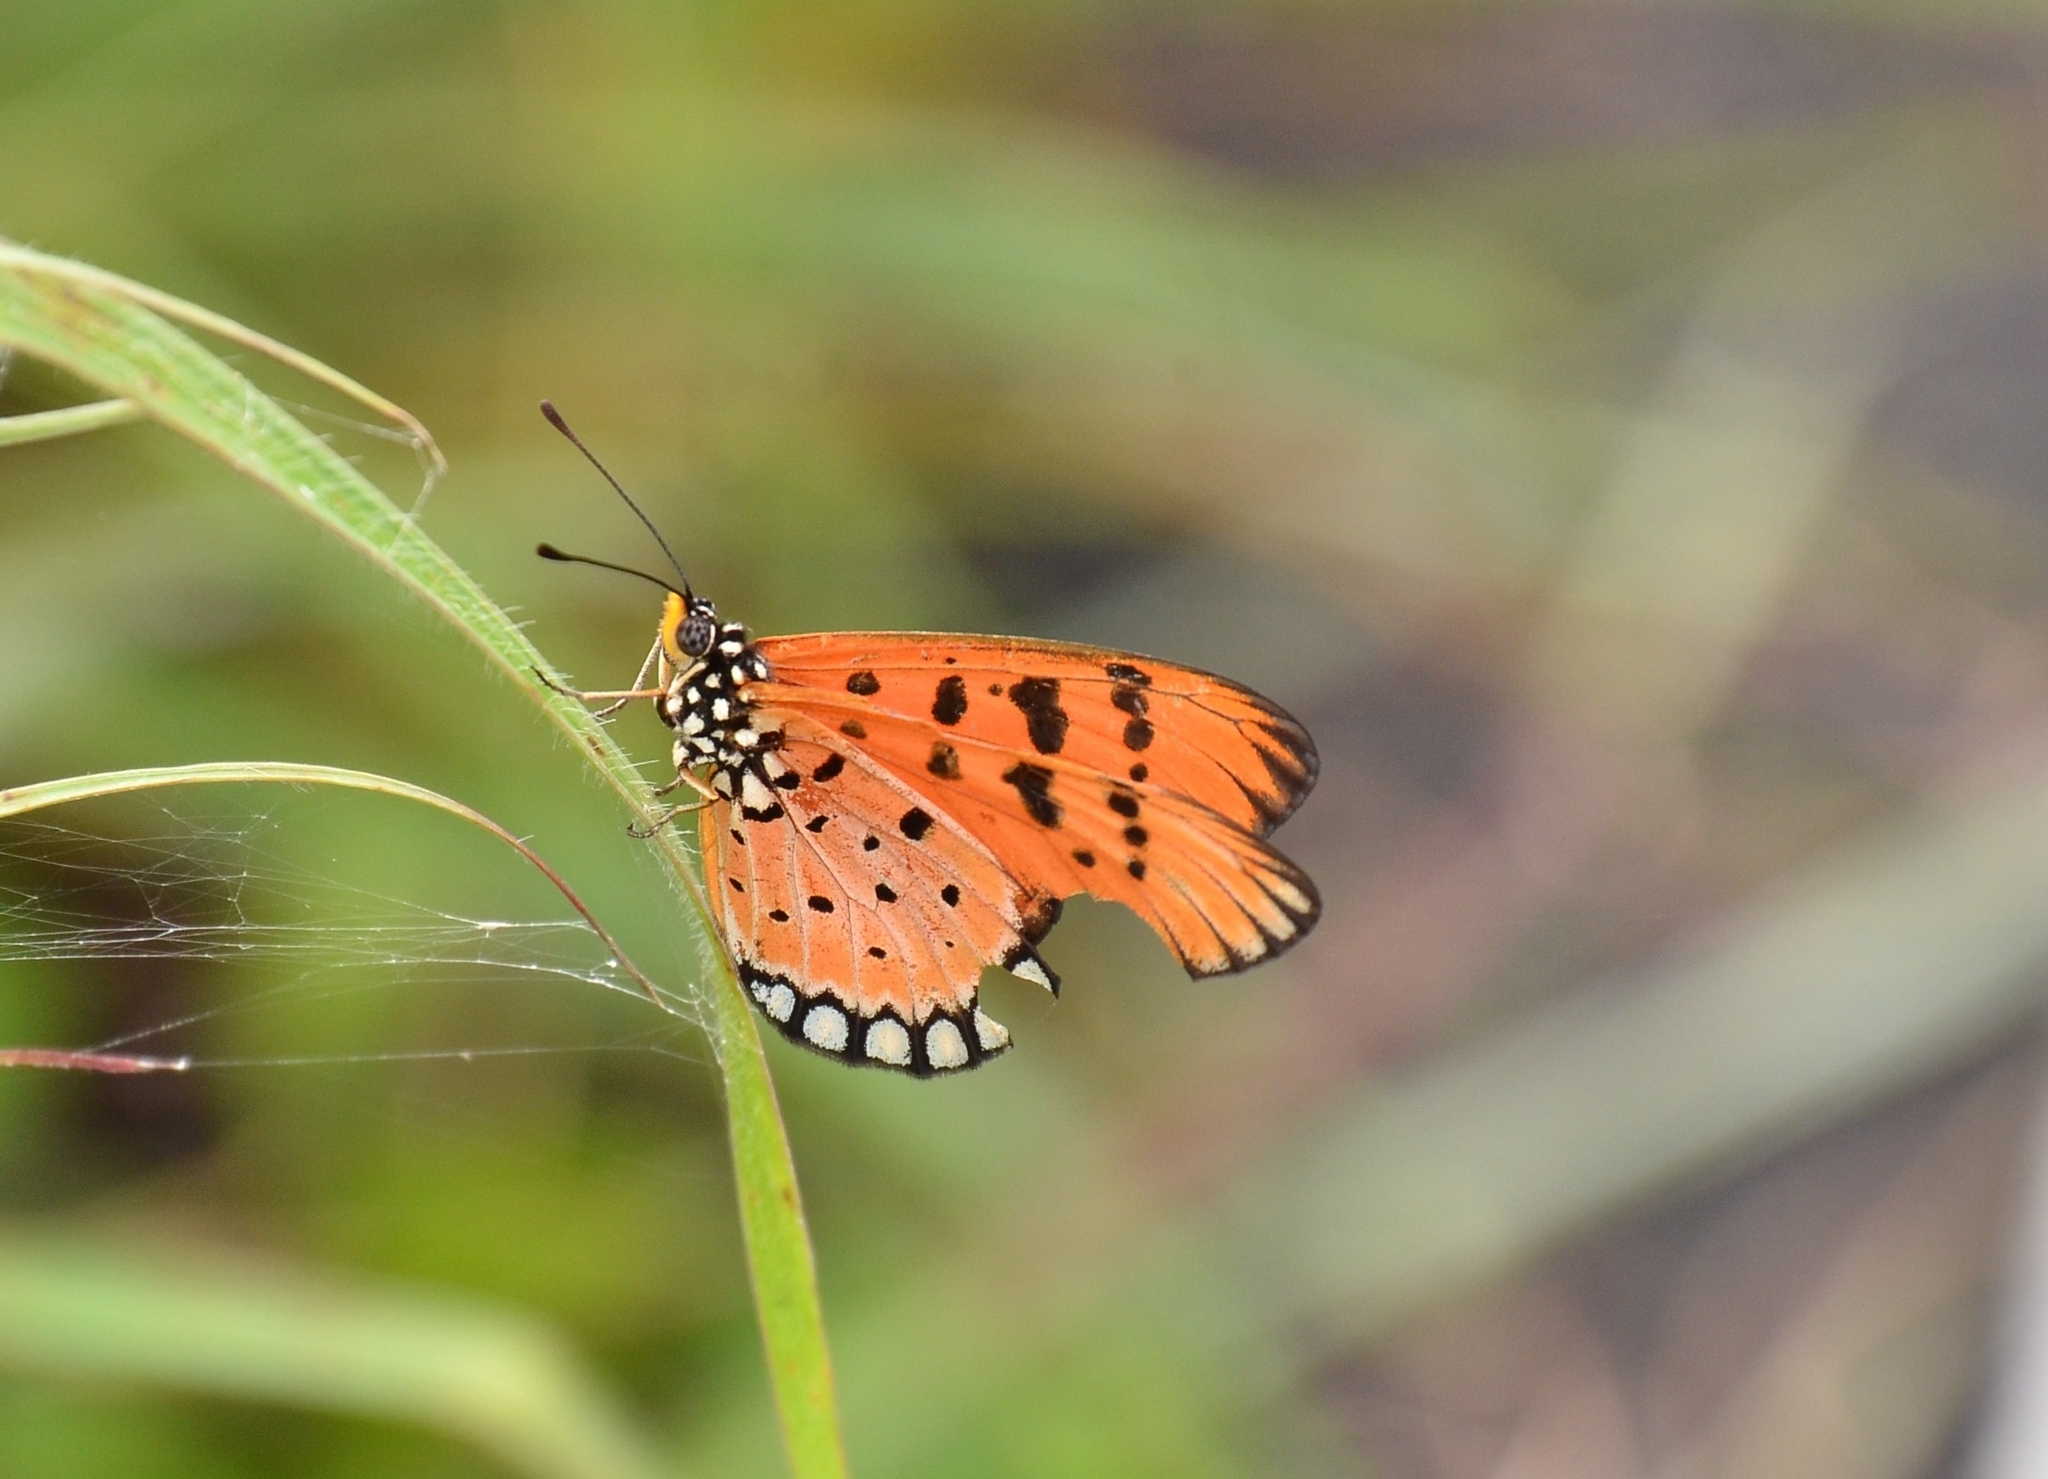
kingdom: Animalia
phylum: Arthropoda
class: Insecta
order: Lepidoptera
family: Nymphalidae
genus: Acraea
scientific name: Acraea terpsicore
